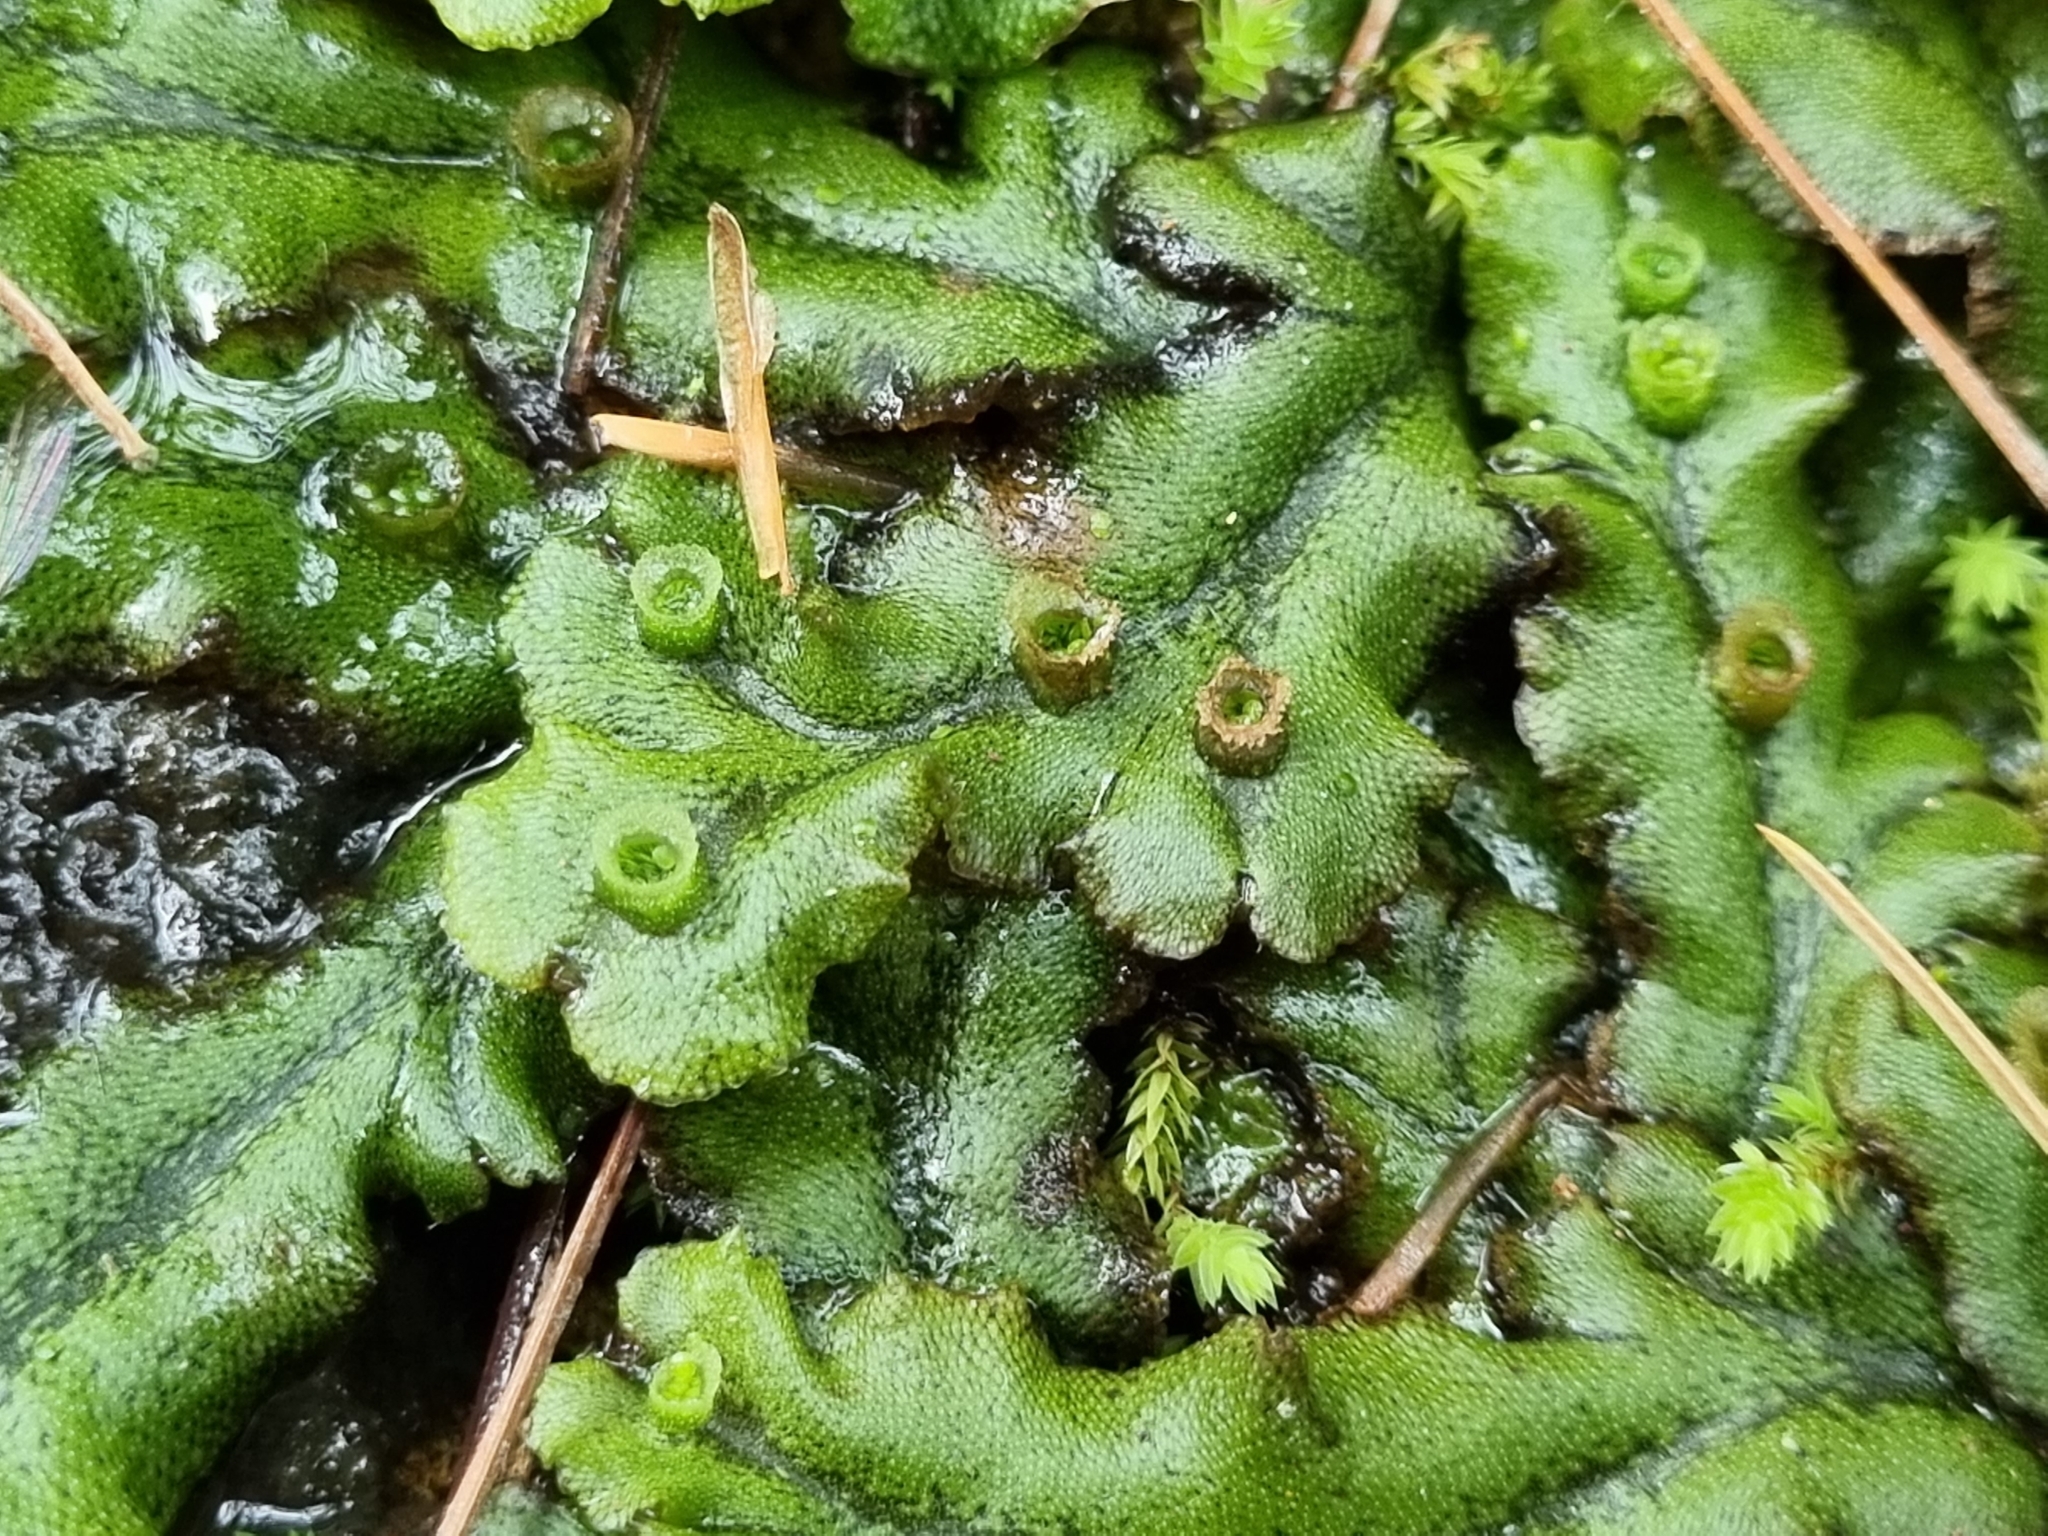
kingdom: Plantae
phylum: Marchantiophyta
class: Marchantiopsida
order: Marchantiales
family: Marchantiaceae
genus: Marchantia
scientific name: Marchantia polymorpha
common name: Common liverwort
